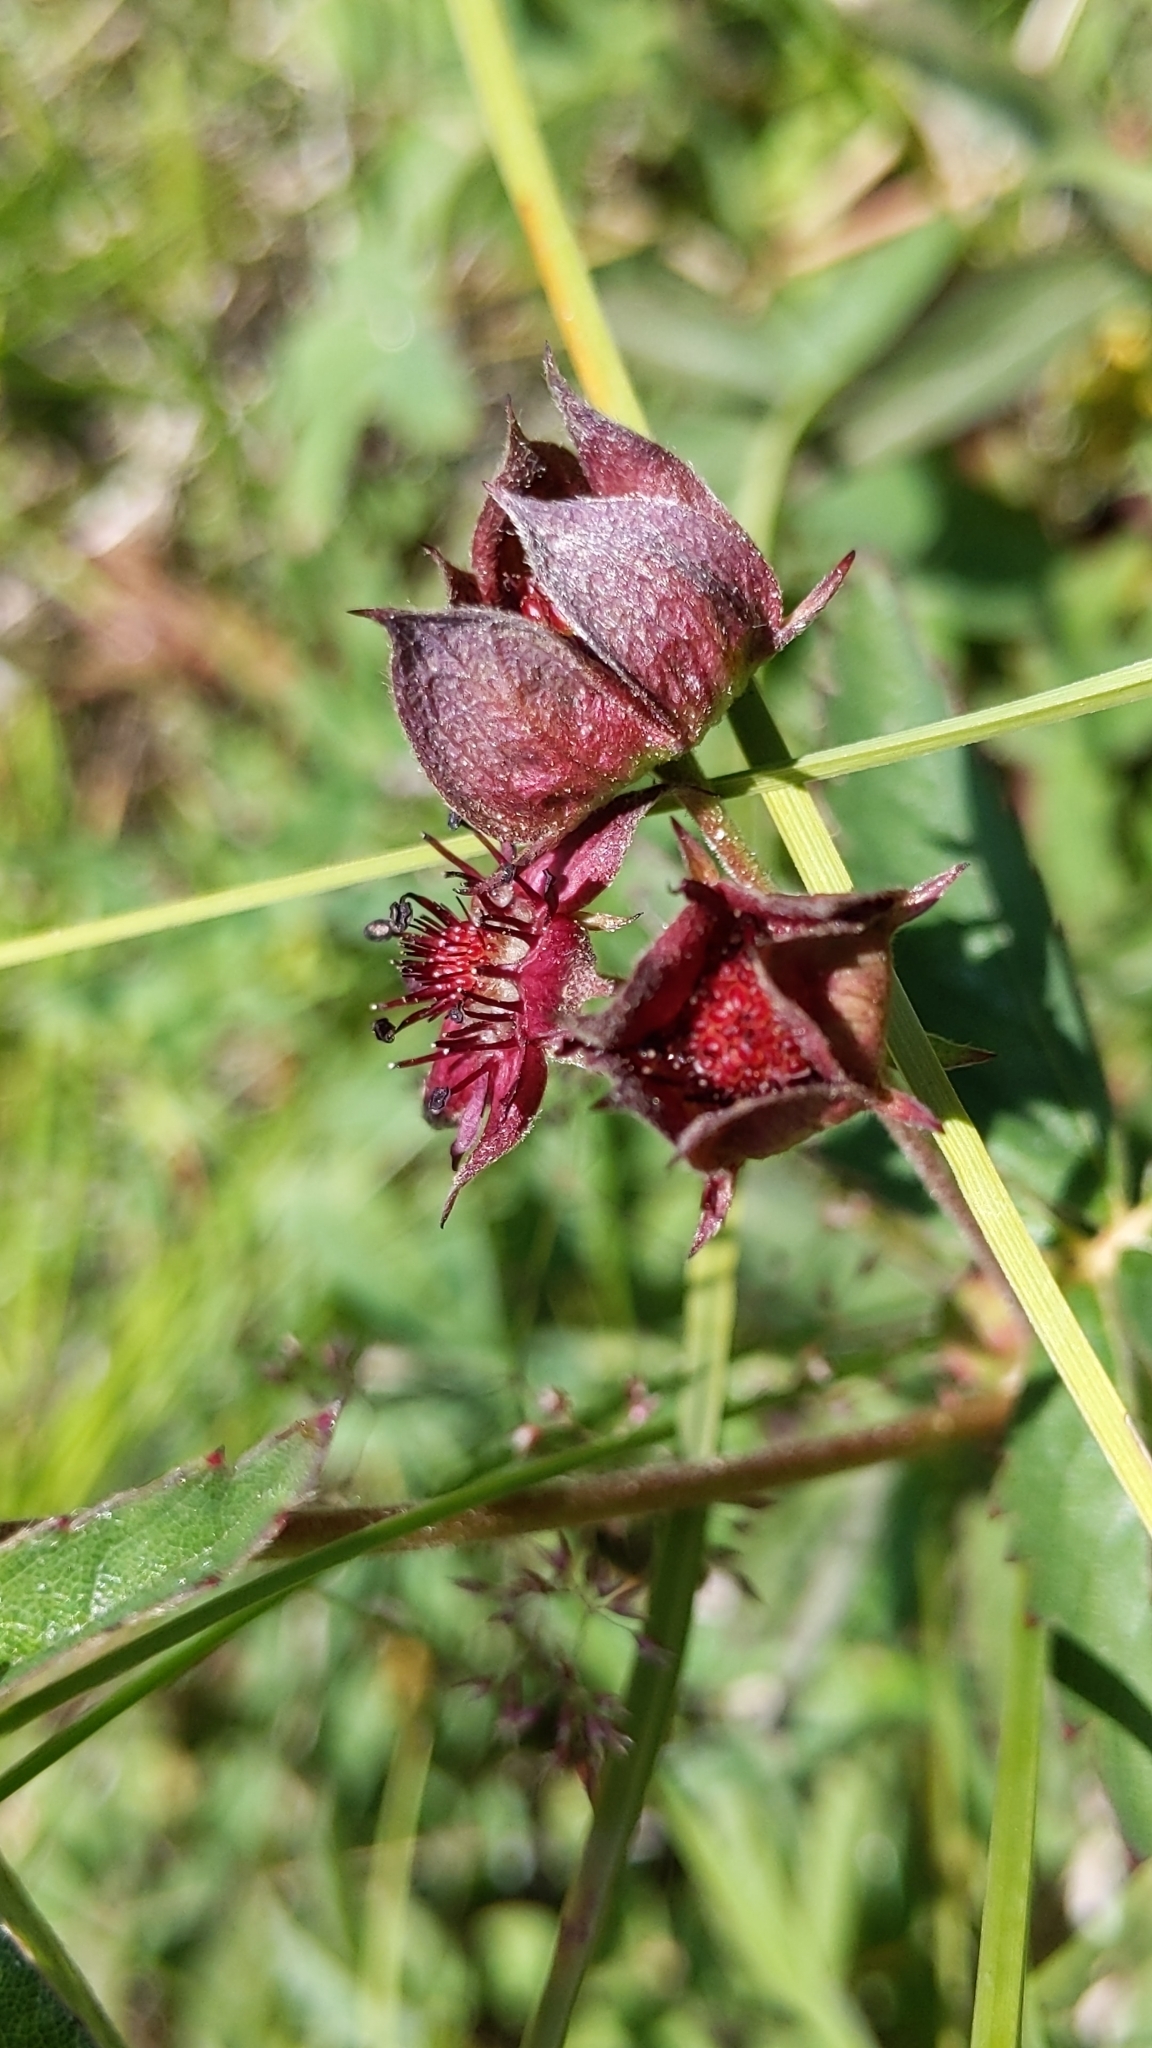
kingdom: Plantae
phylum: Tracheophyta
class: Magnoliopsida
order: Rosales
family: Rosaceae
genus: Comarum
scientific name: Comarum palustre
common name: Marsh cinquefoil
